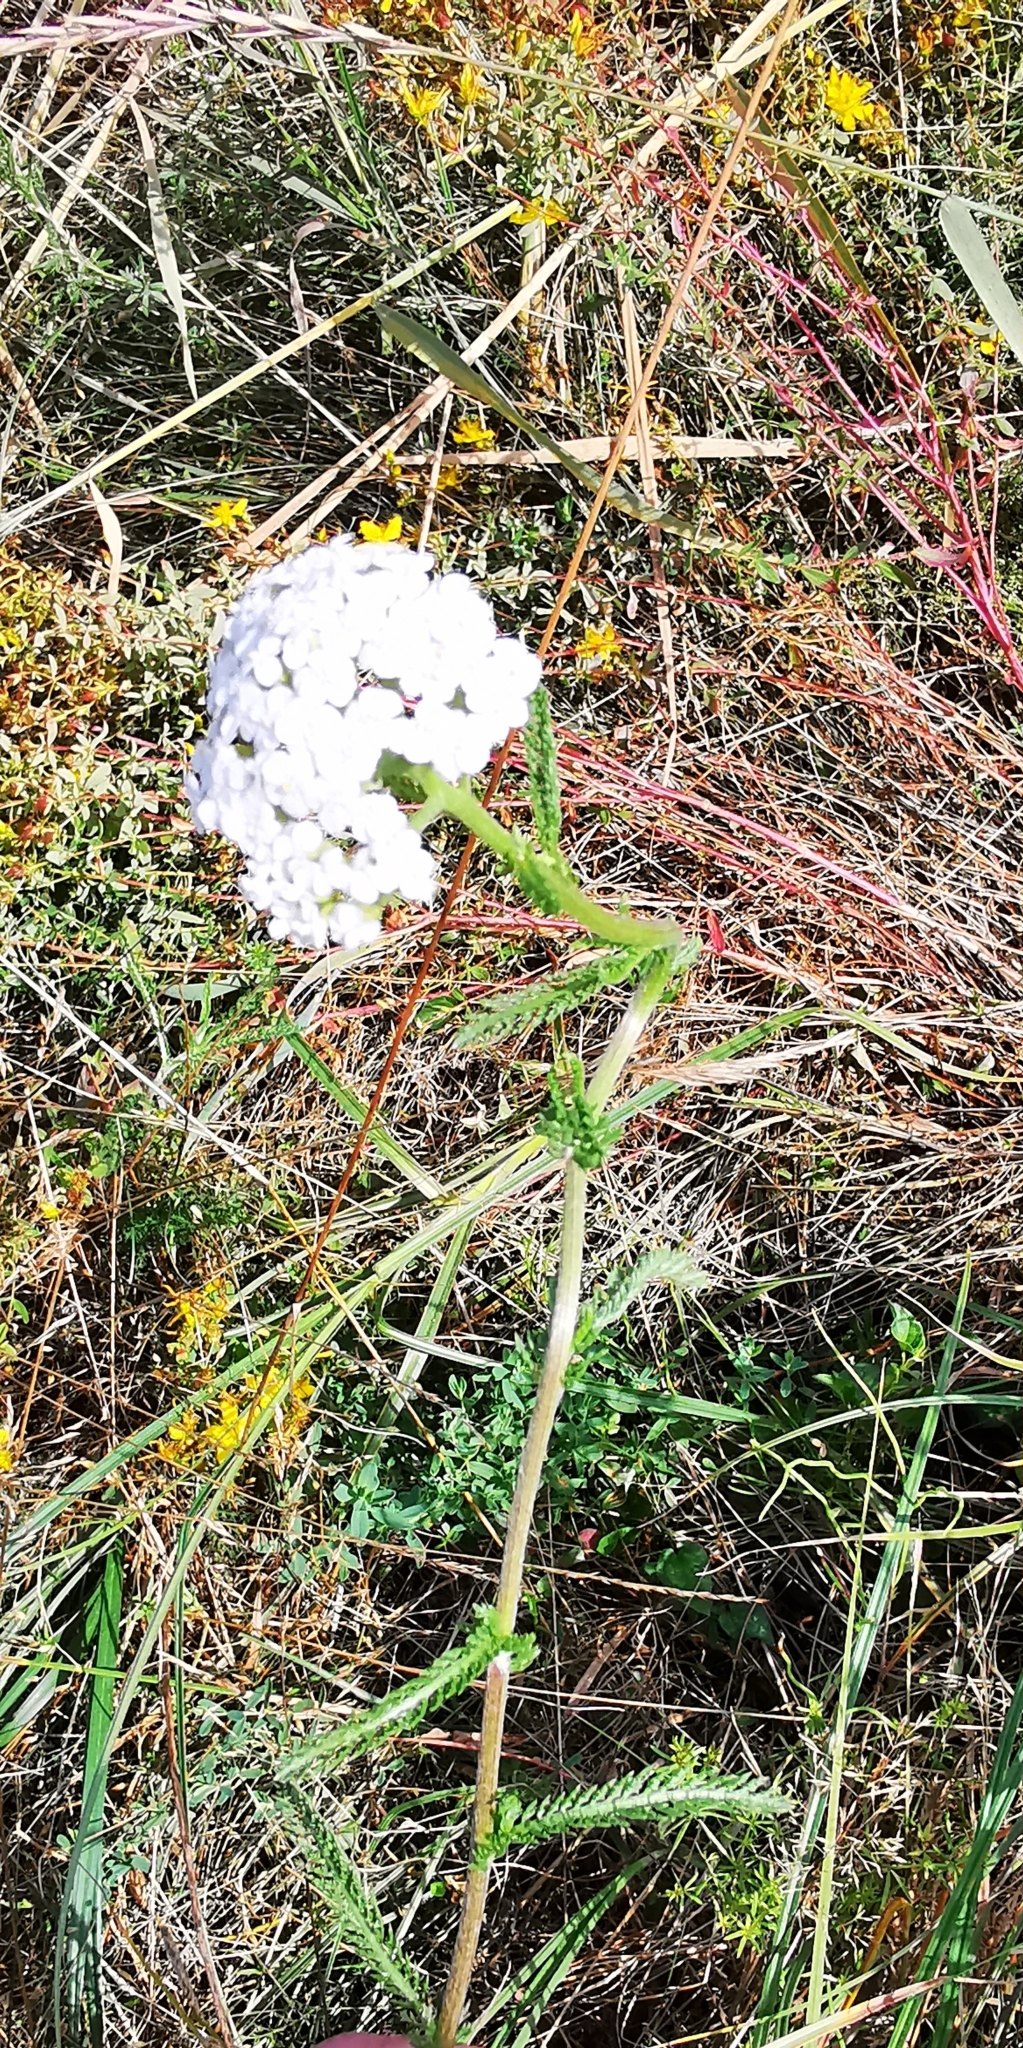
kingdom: Plantae
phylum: Tracheophyta
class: Magnoliopsida
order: Asterales
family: Asteraceae
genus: Achillea
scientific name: Achillea millefolium
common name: Yarrow
